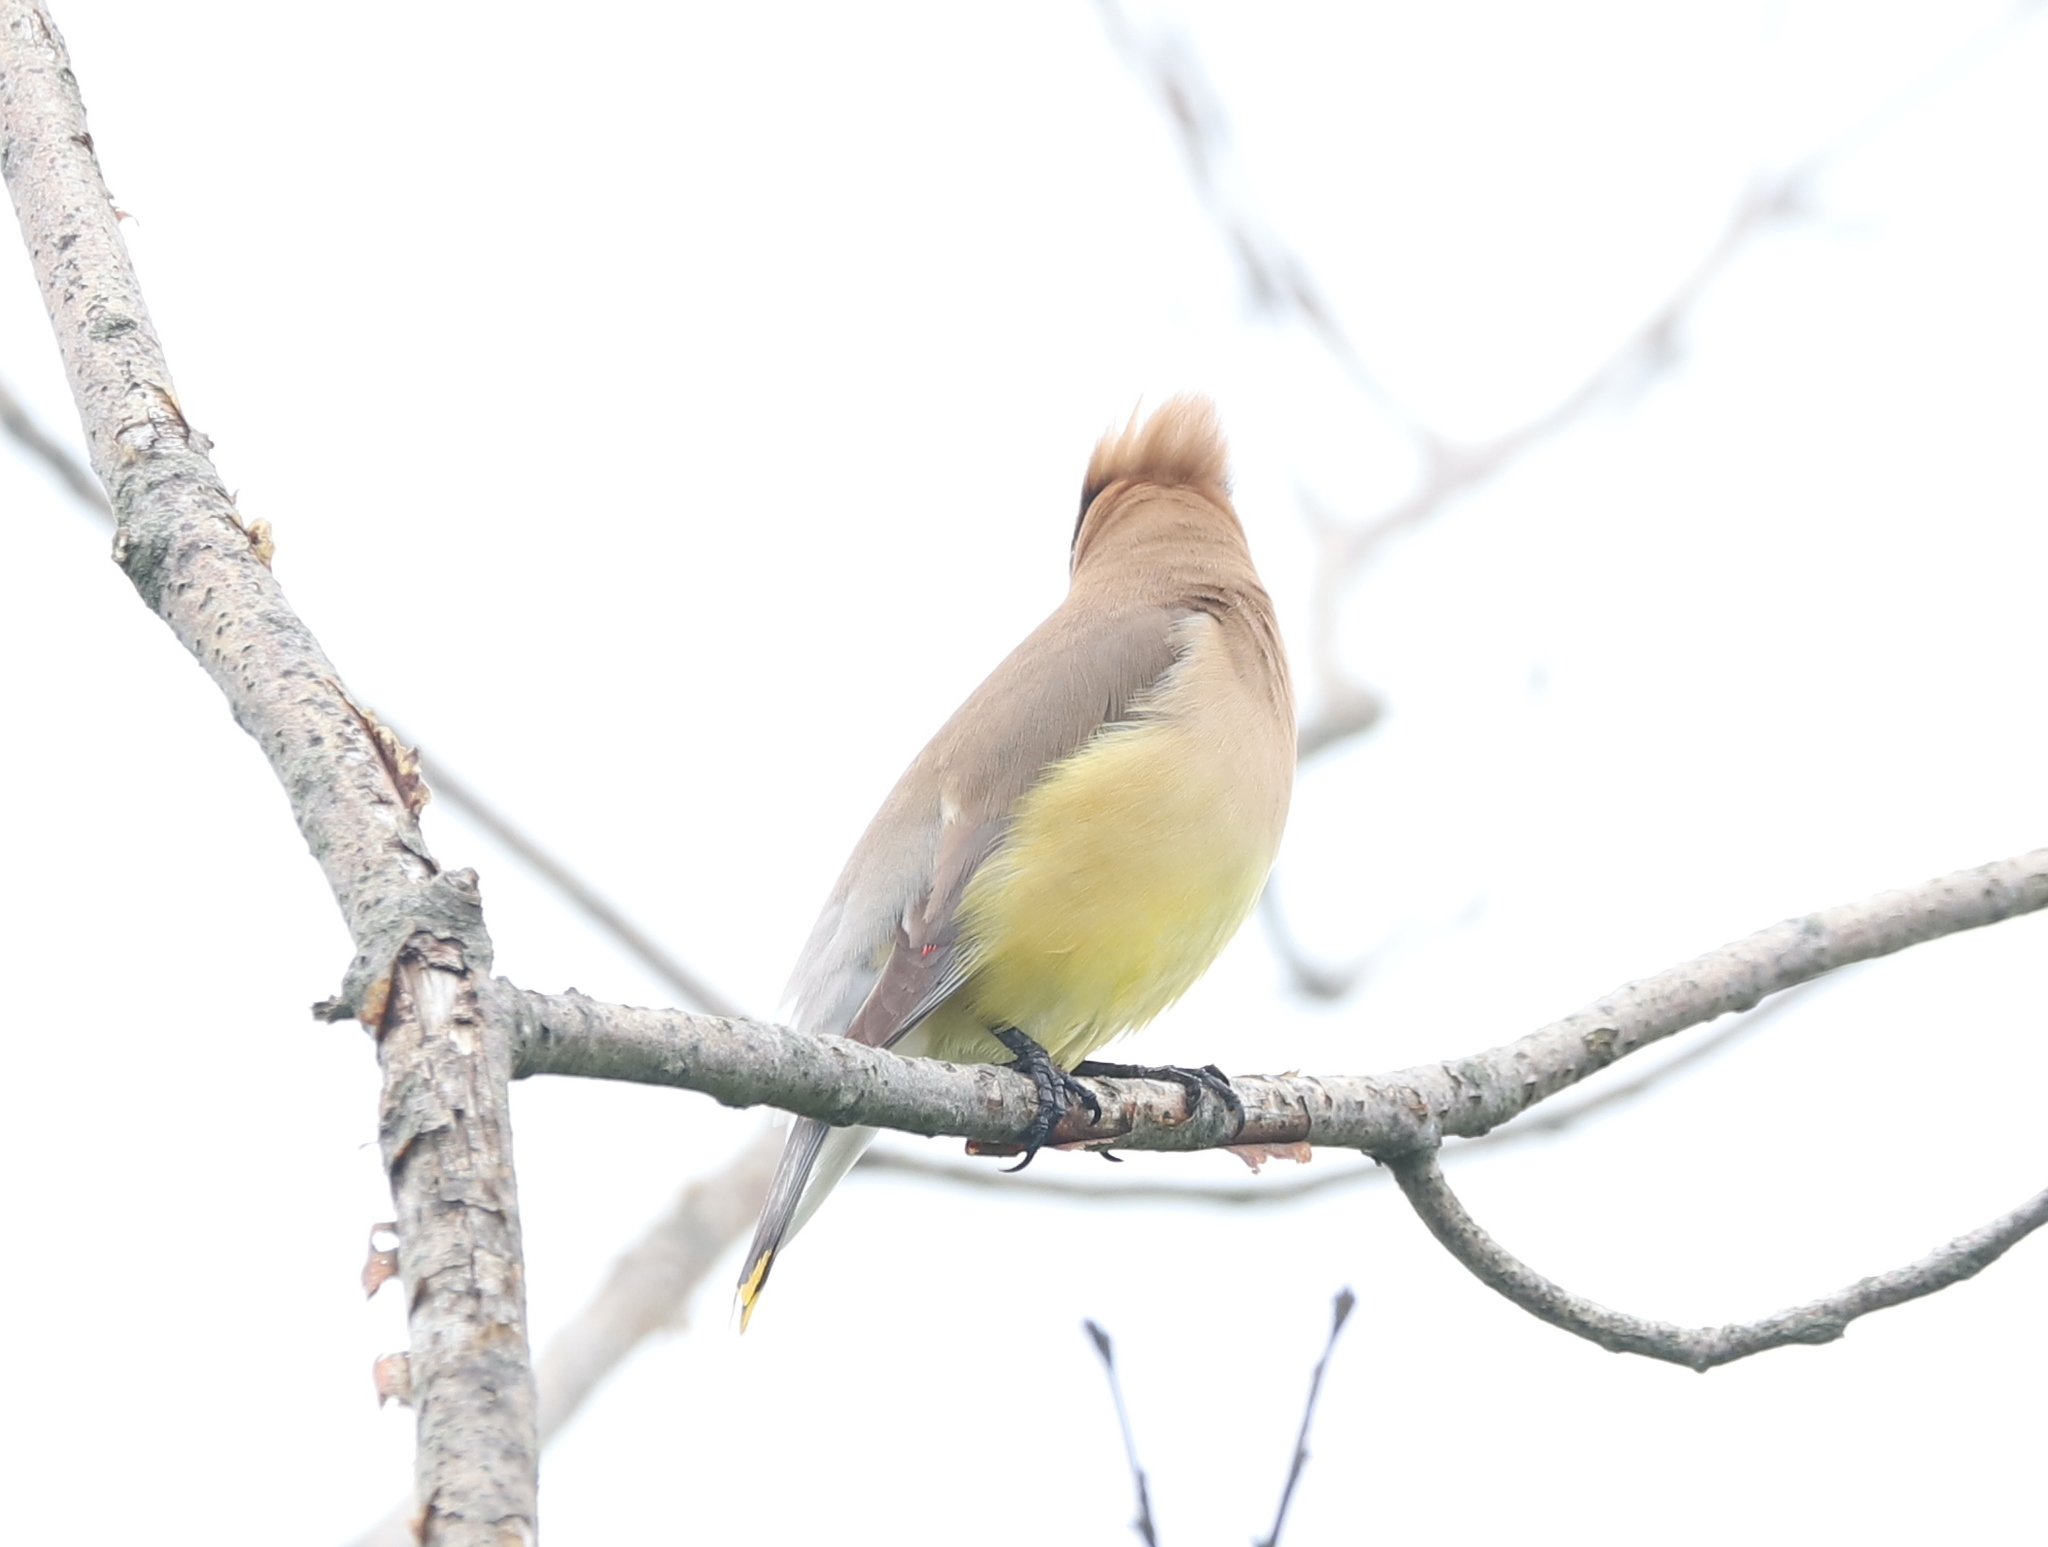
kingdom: Animalia
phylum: Chordata
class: Aves
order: Passeriformes
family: Bombycillidae
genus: Bombycilla
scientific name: Bombycilla cedrorum
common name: Cedar waxwing
